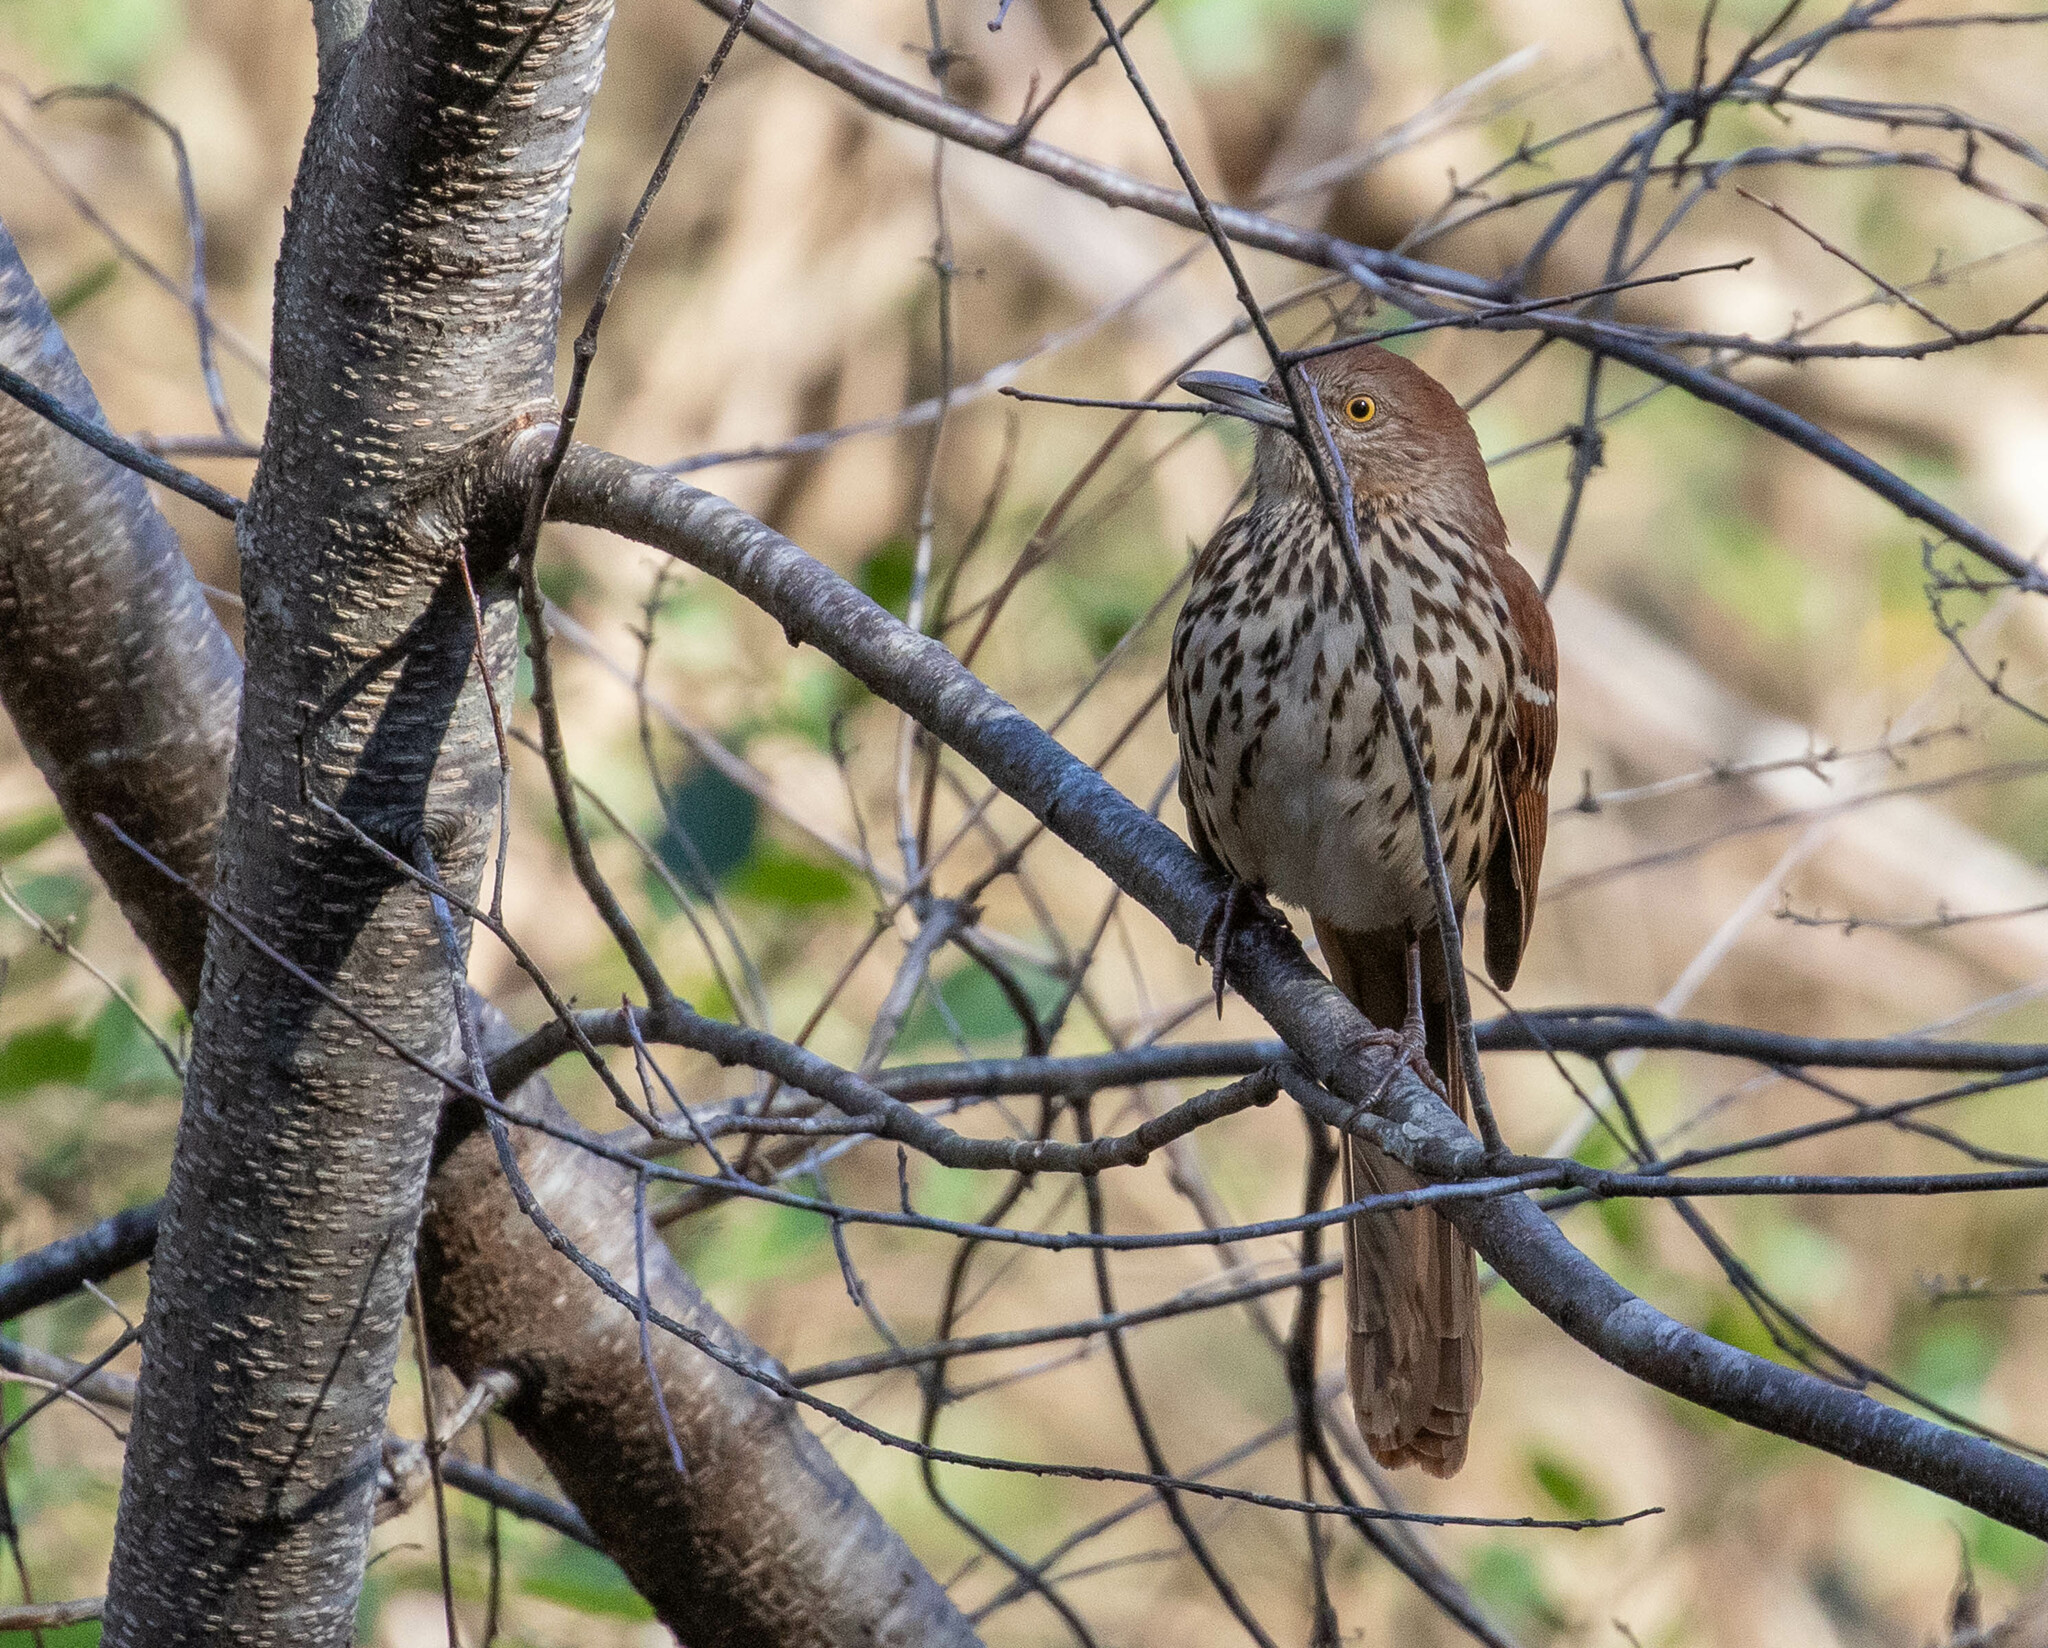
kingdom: Animalia
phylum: Chordata
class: Aves
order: Passeriformes
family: Mimidae
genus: Toxostoma
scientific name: Toxostoma rufum
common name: Brown thrasher
